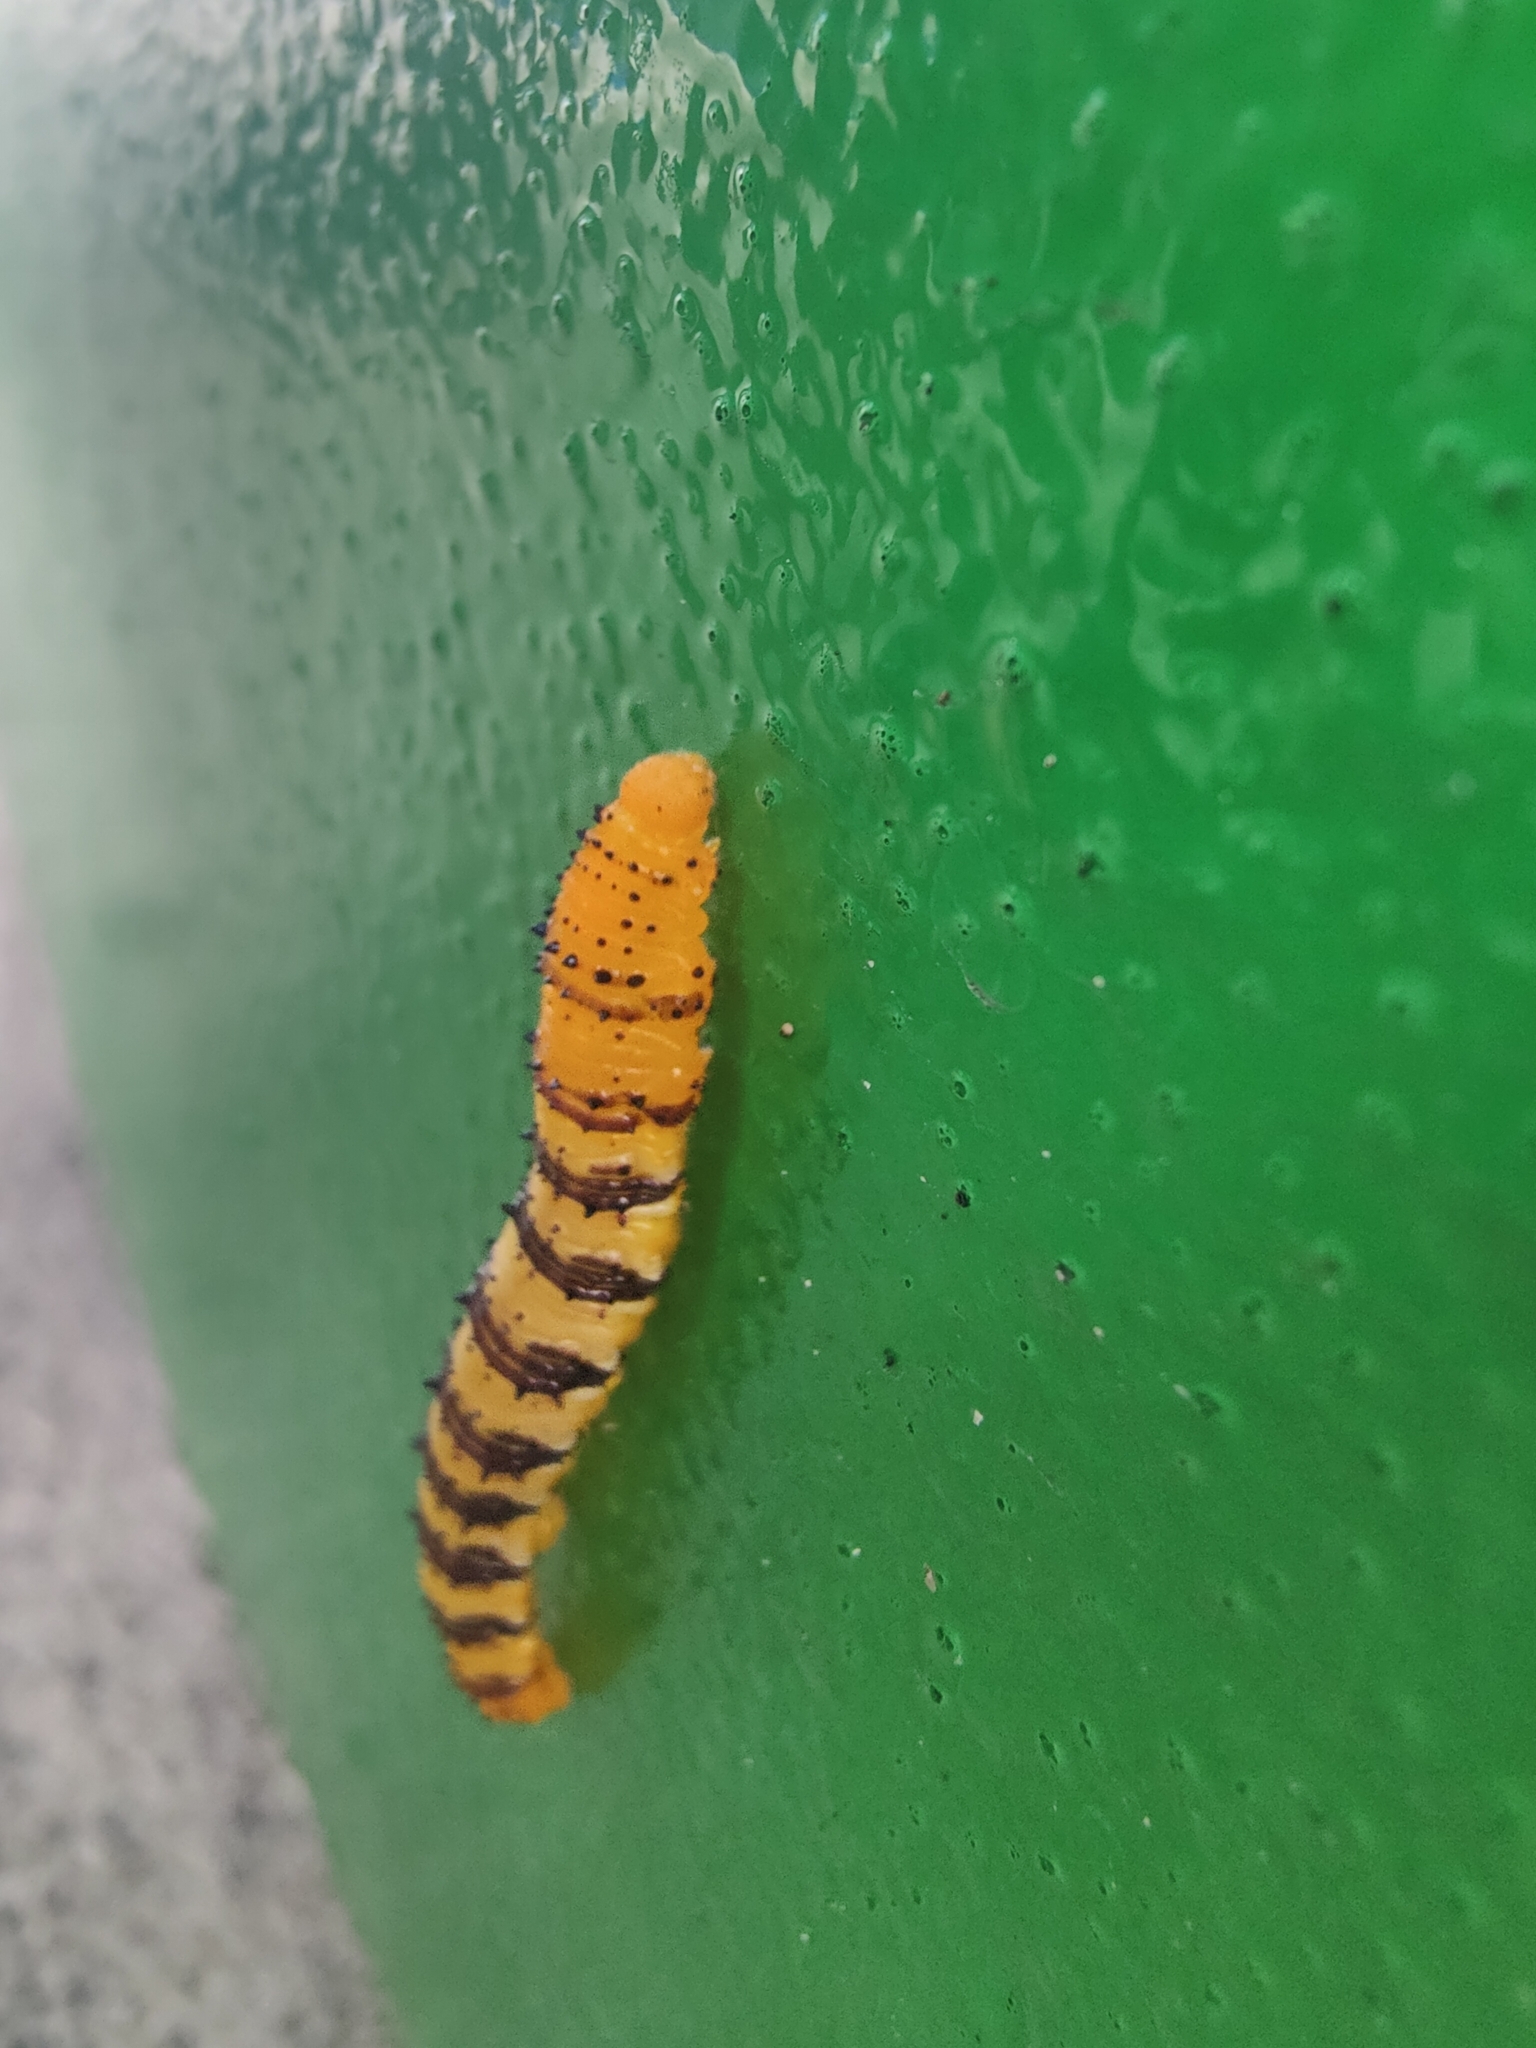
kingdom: Animalia
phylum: Arthropoda
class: Insecta
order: Lepidoptera
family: Pieridae
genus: Phoebis
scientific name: Phoebis philea
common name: Orange-barred giant sulphur
